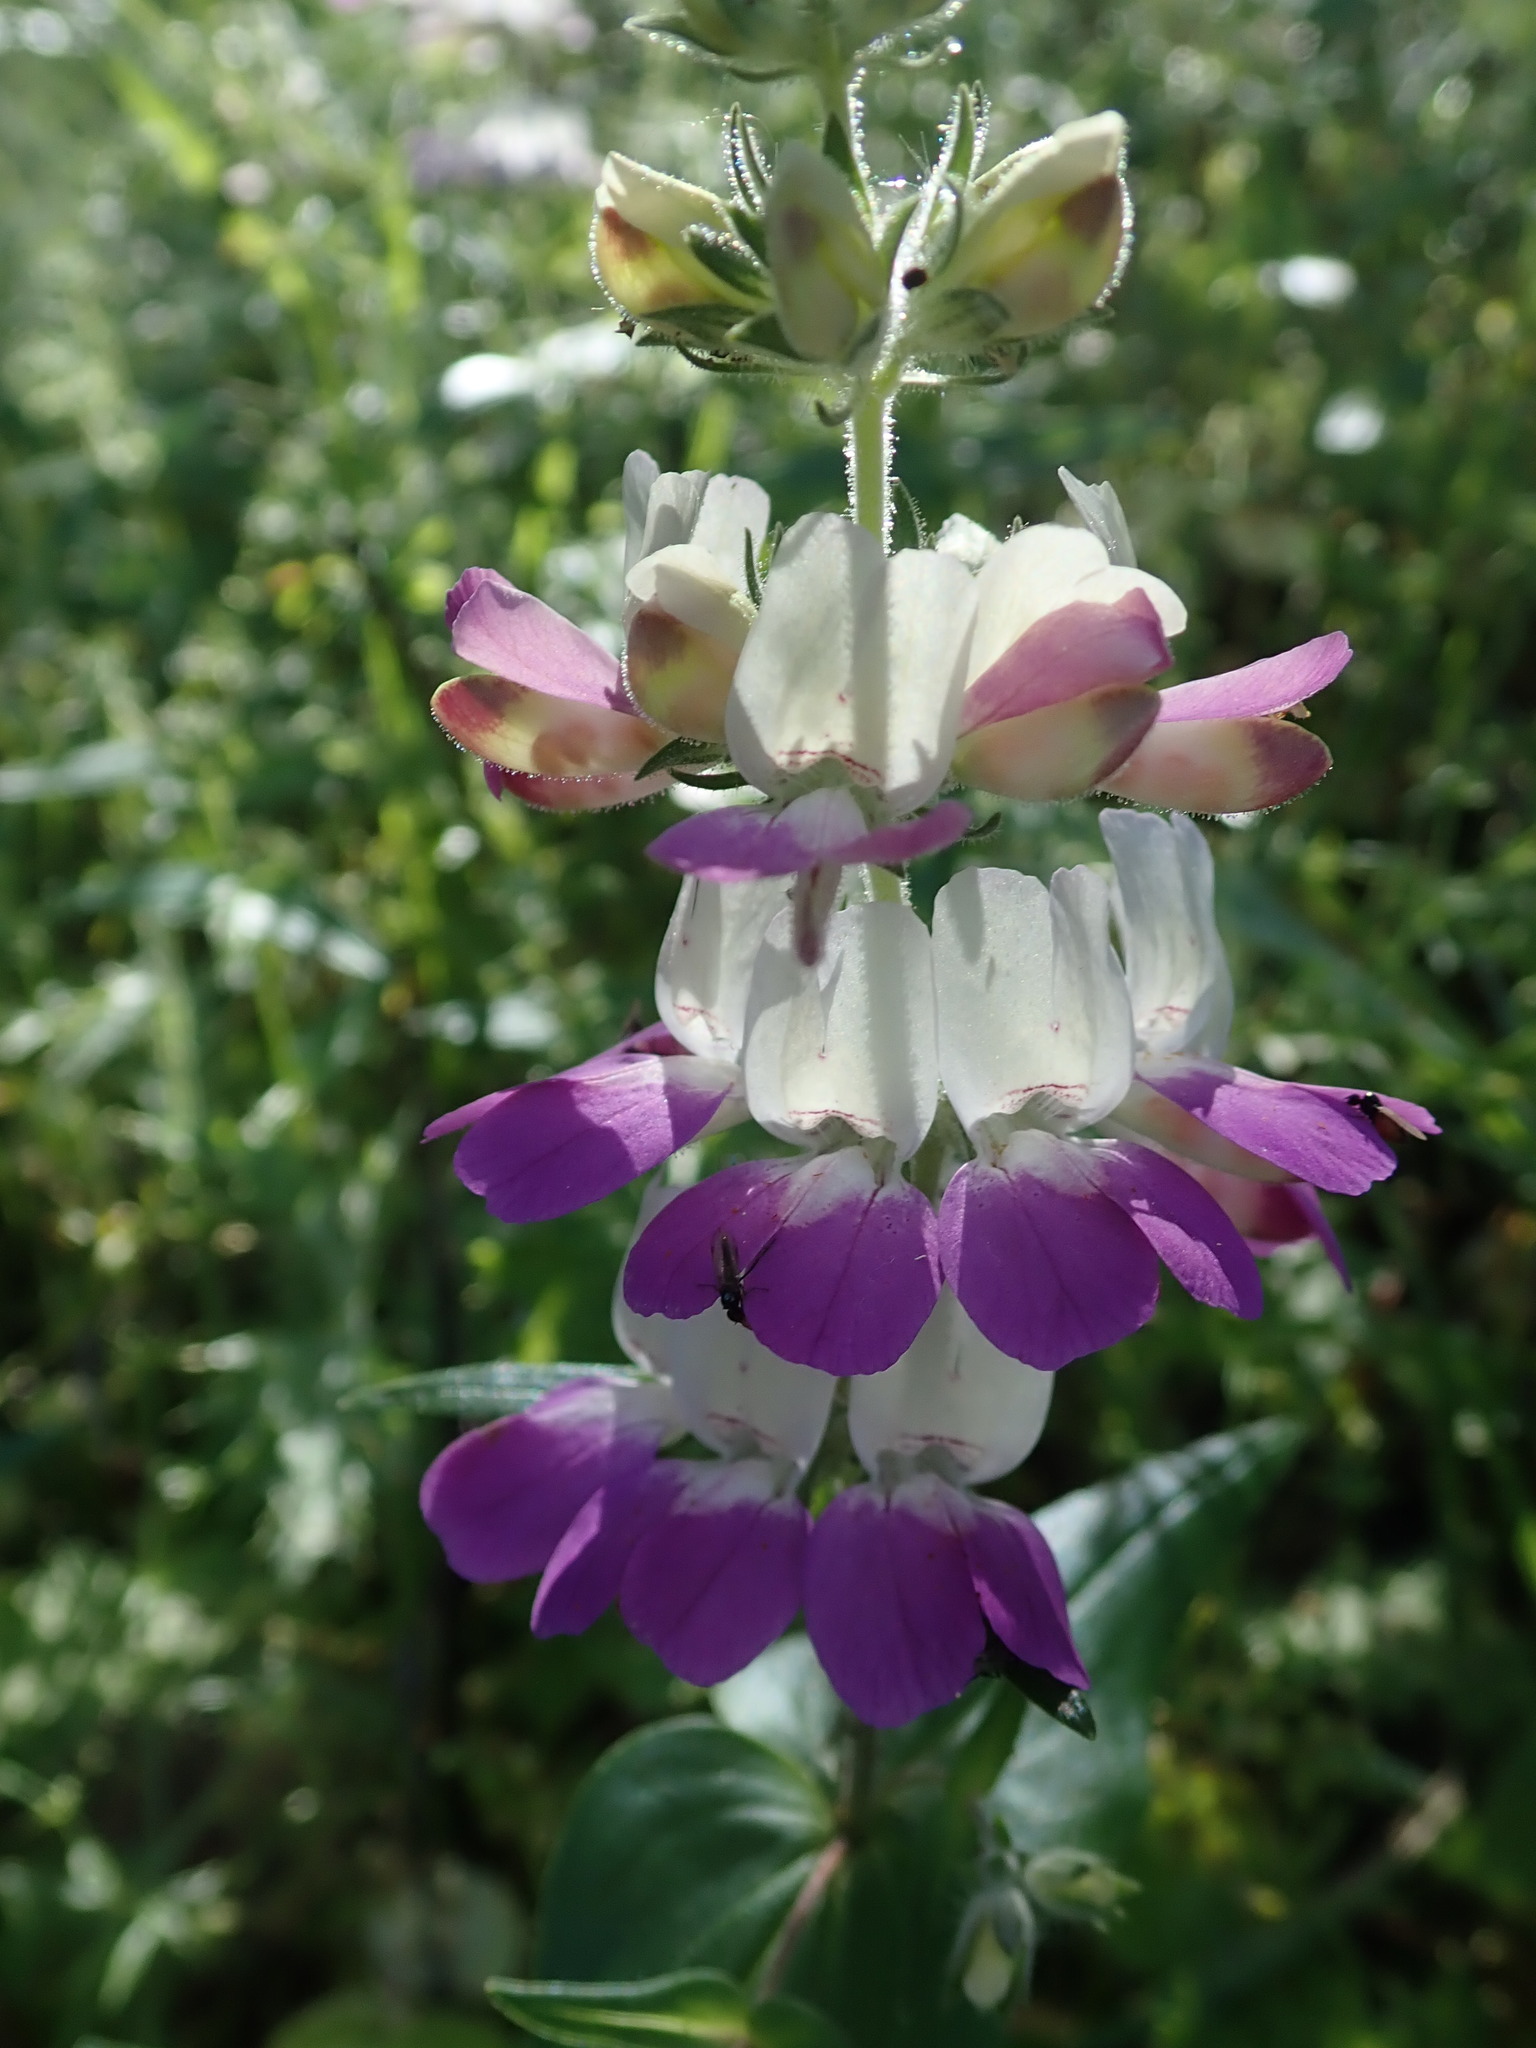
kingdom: Plantae
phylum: Tracheophyta
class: Magnoliopsida
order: Lamiales
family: Plantaginaceae
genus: Collinsia
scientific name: Collinsia heterophylla
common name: Chinese-houses
